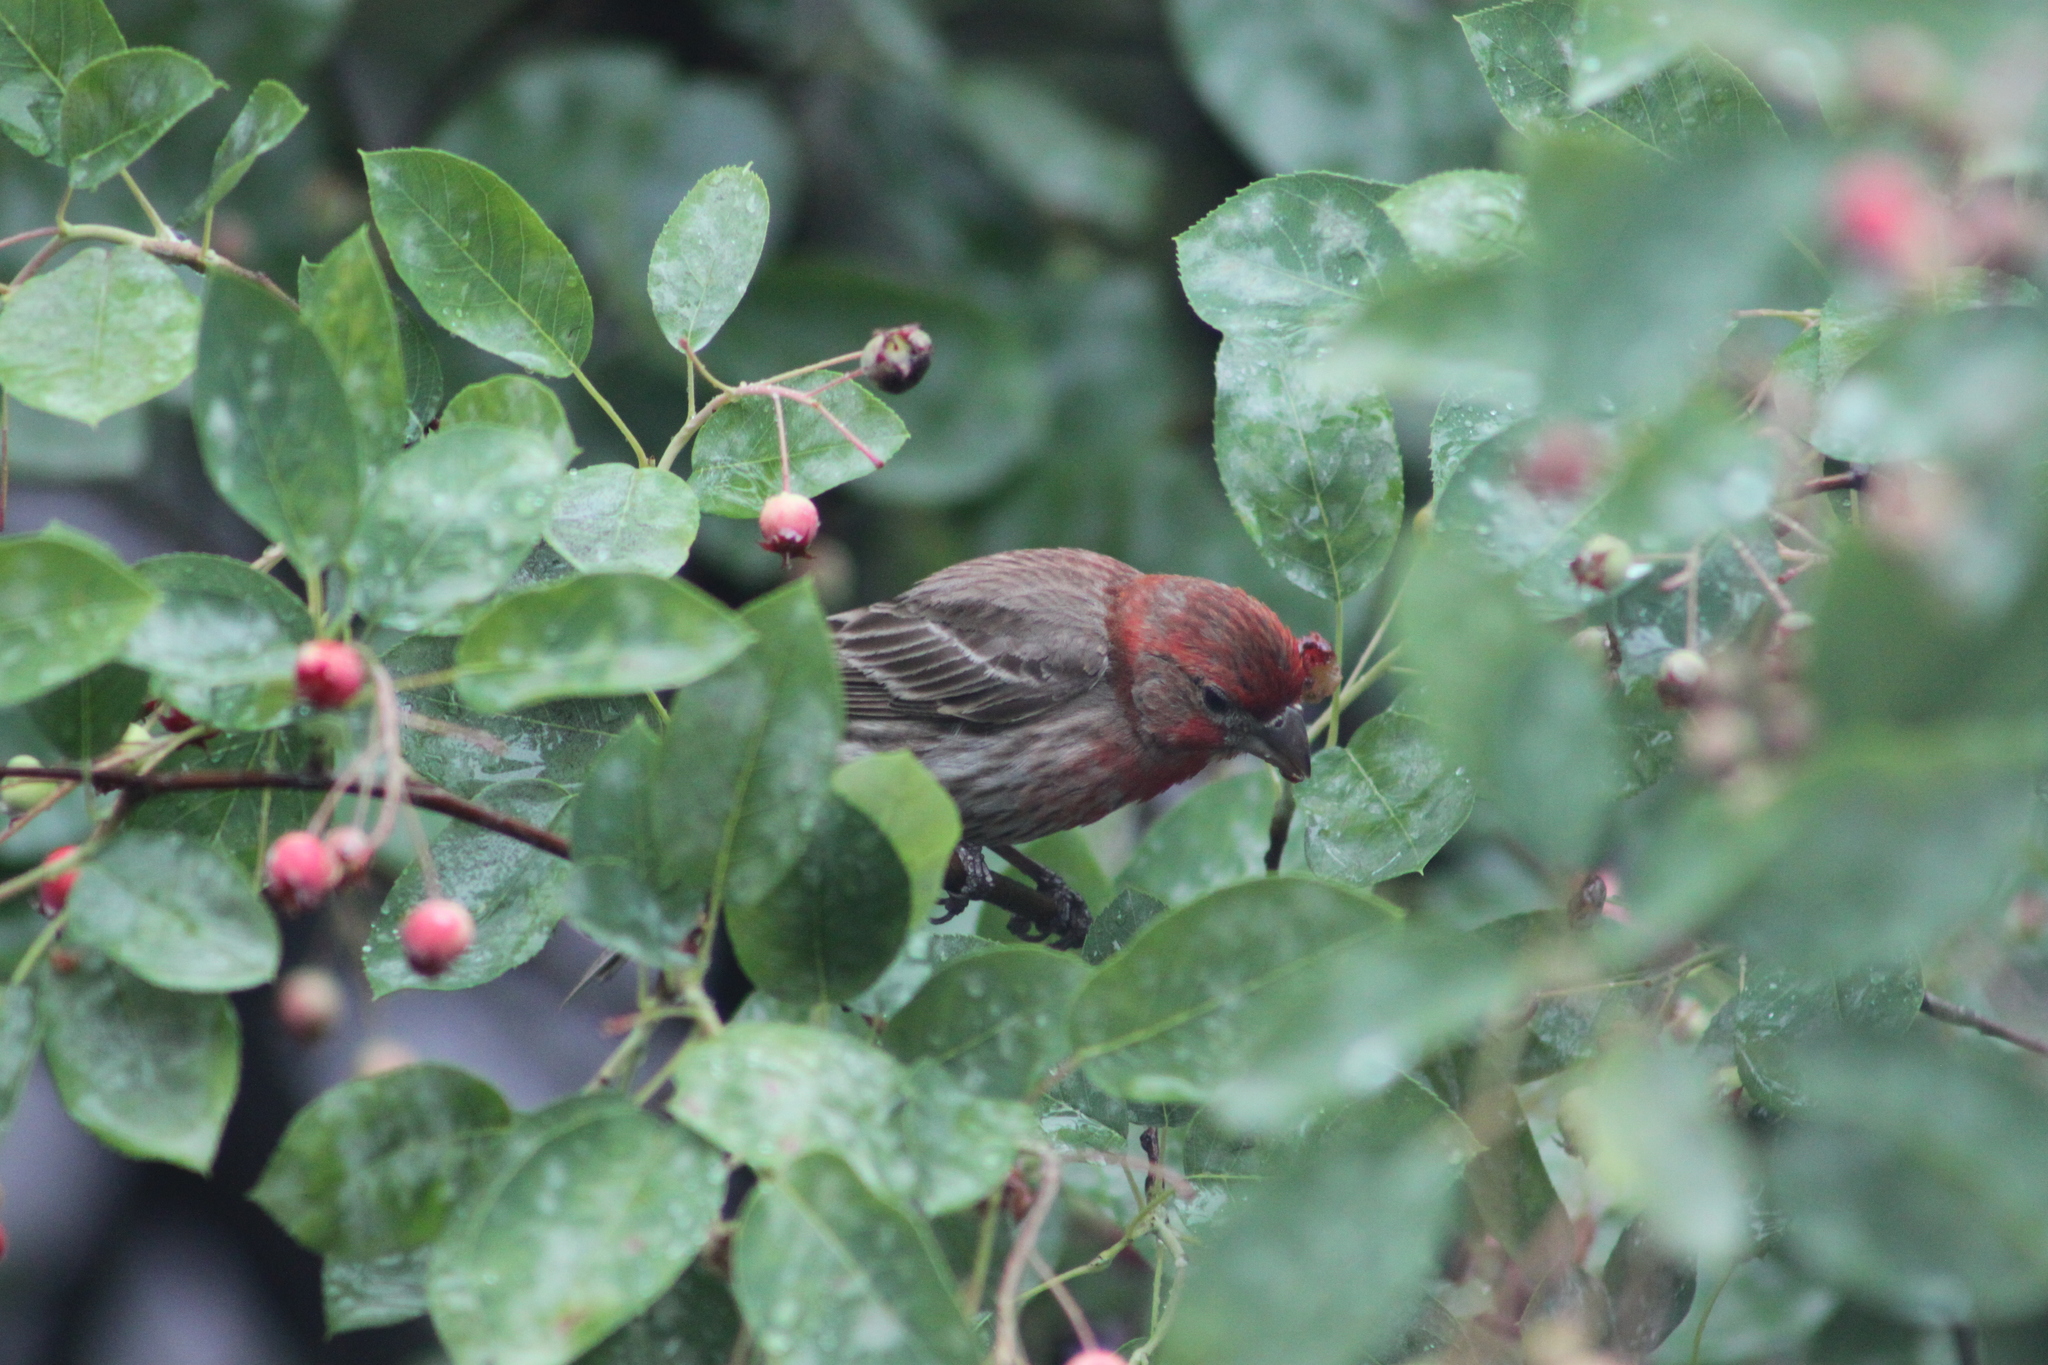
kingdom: Animalia
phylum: Chordata
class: Aves
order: Passeriformes
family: Fringillidae
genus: Haemorhous
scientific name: Haemorhous mexicanus
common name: House finch
